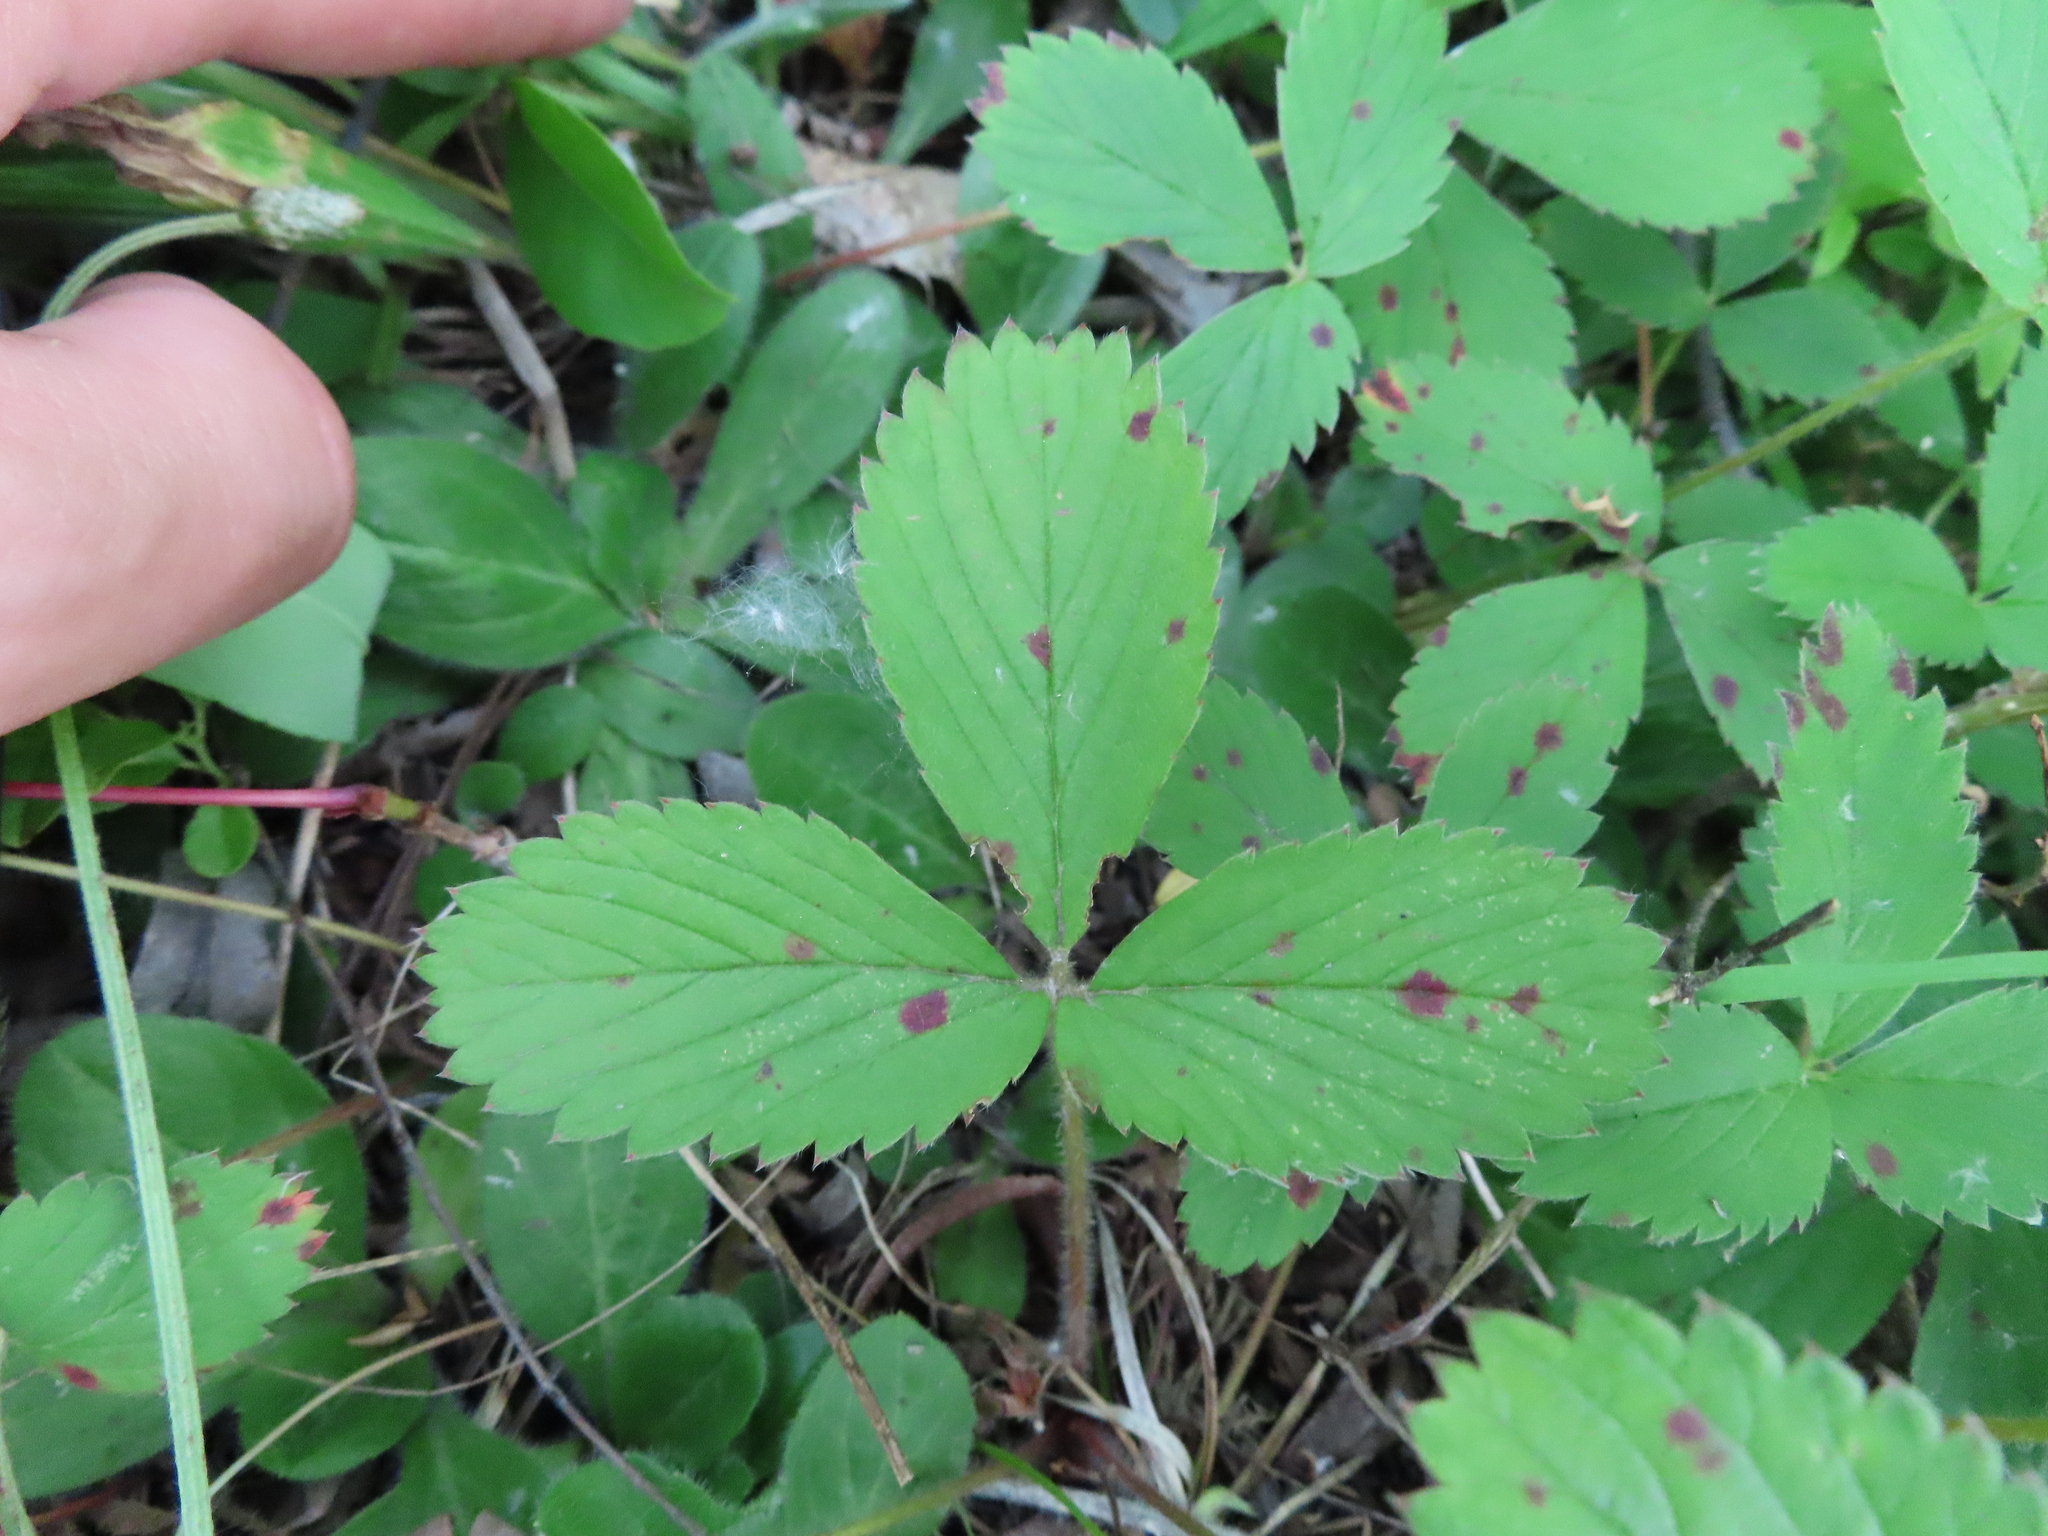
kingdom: Plantae
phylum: Tracheophyta
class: Magnoliopsida
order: Rosales
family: Rosaceae
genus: Fragaria
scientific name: Fragaria virginiana
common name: Thickleaved wild strawberry
